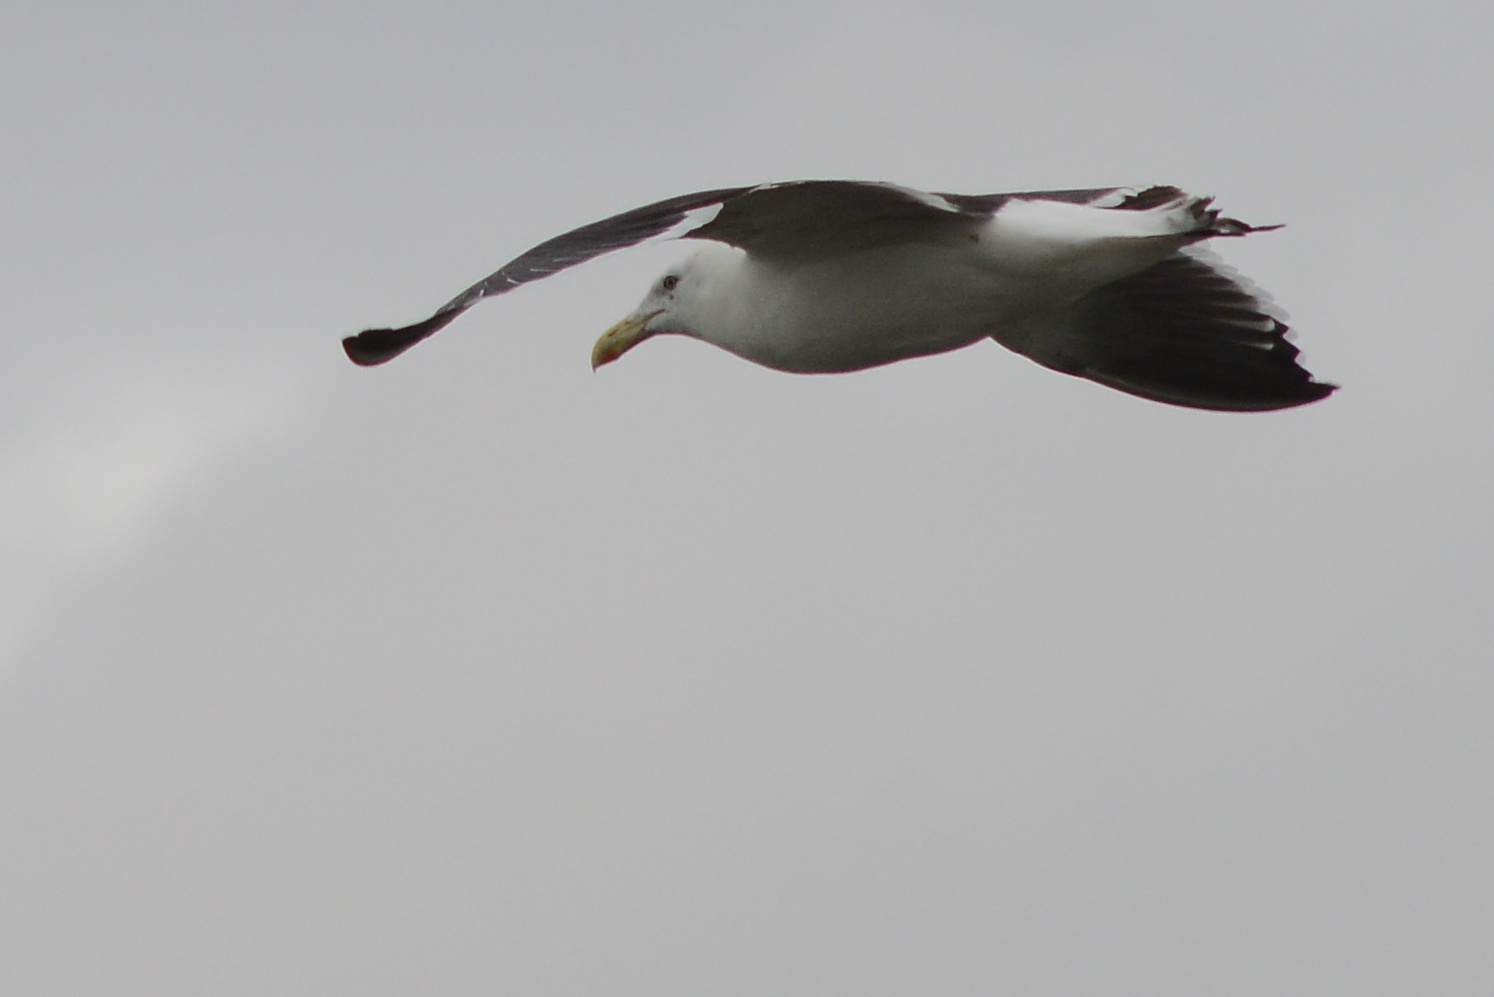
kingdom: Animalia
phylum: Chordata
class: Aves
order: Charadriiformes
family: Laridae
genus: Larus
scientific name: Larus dominicanus
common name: Kelp gull
